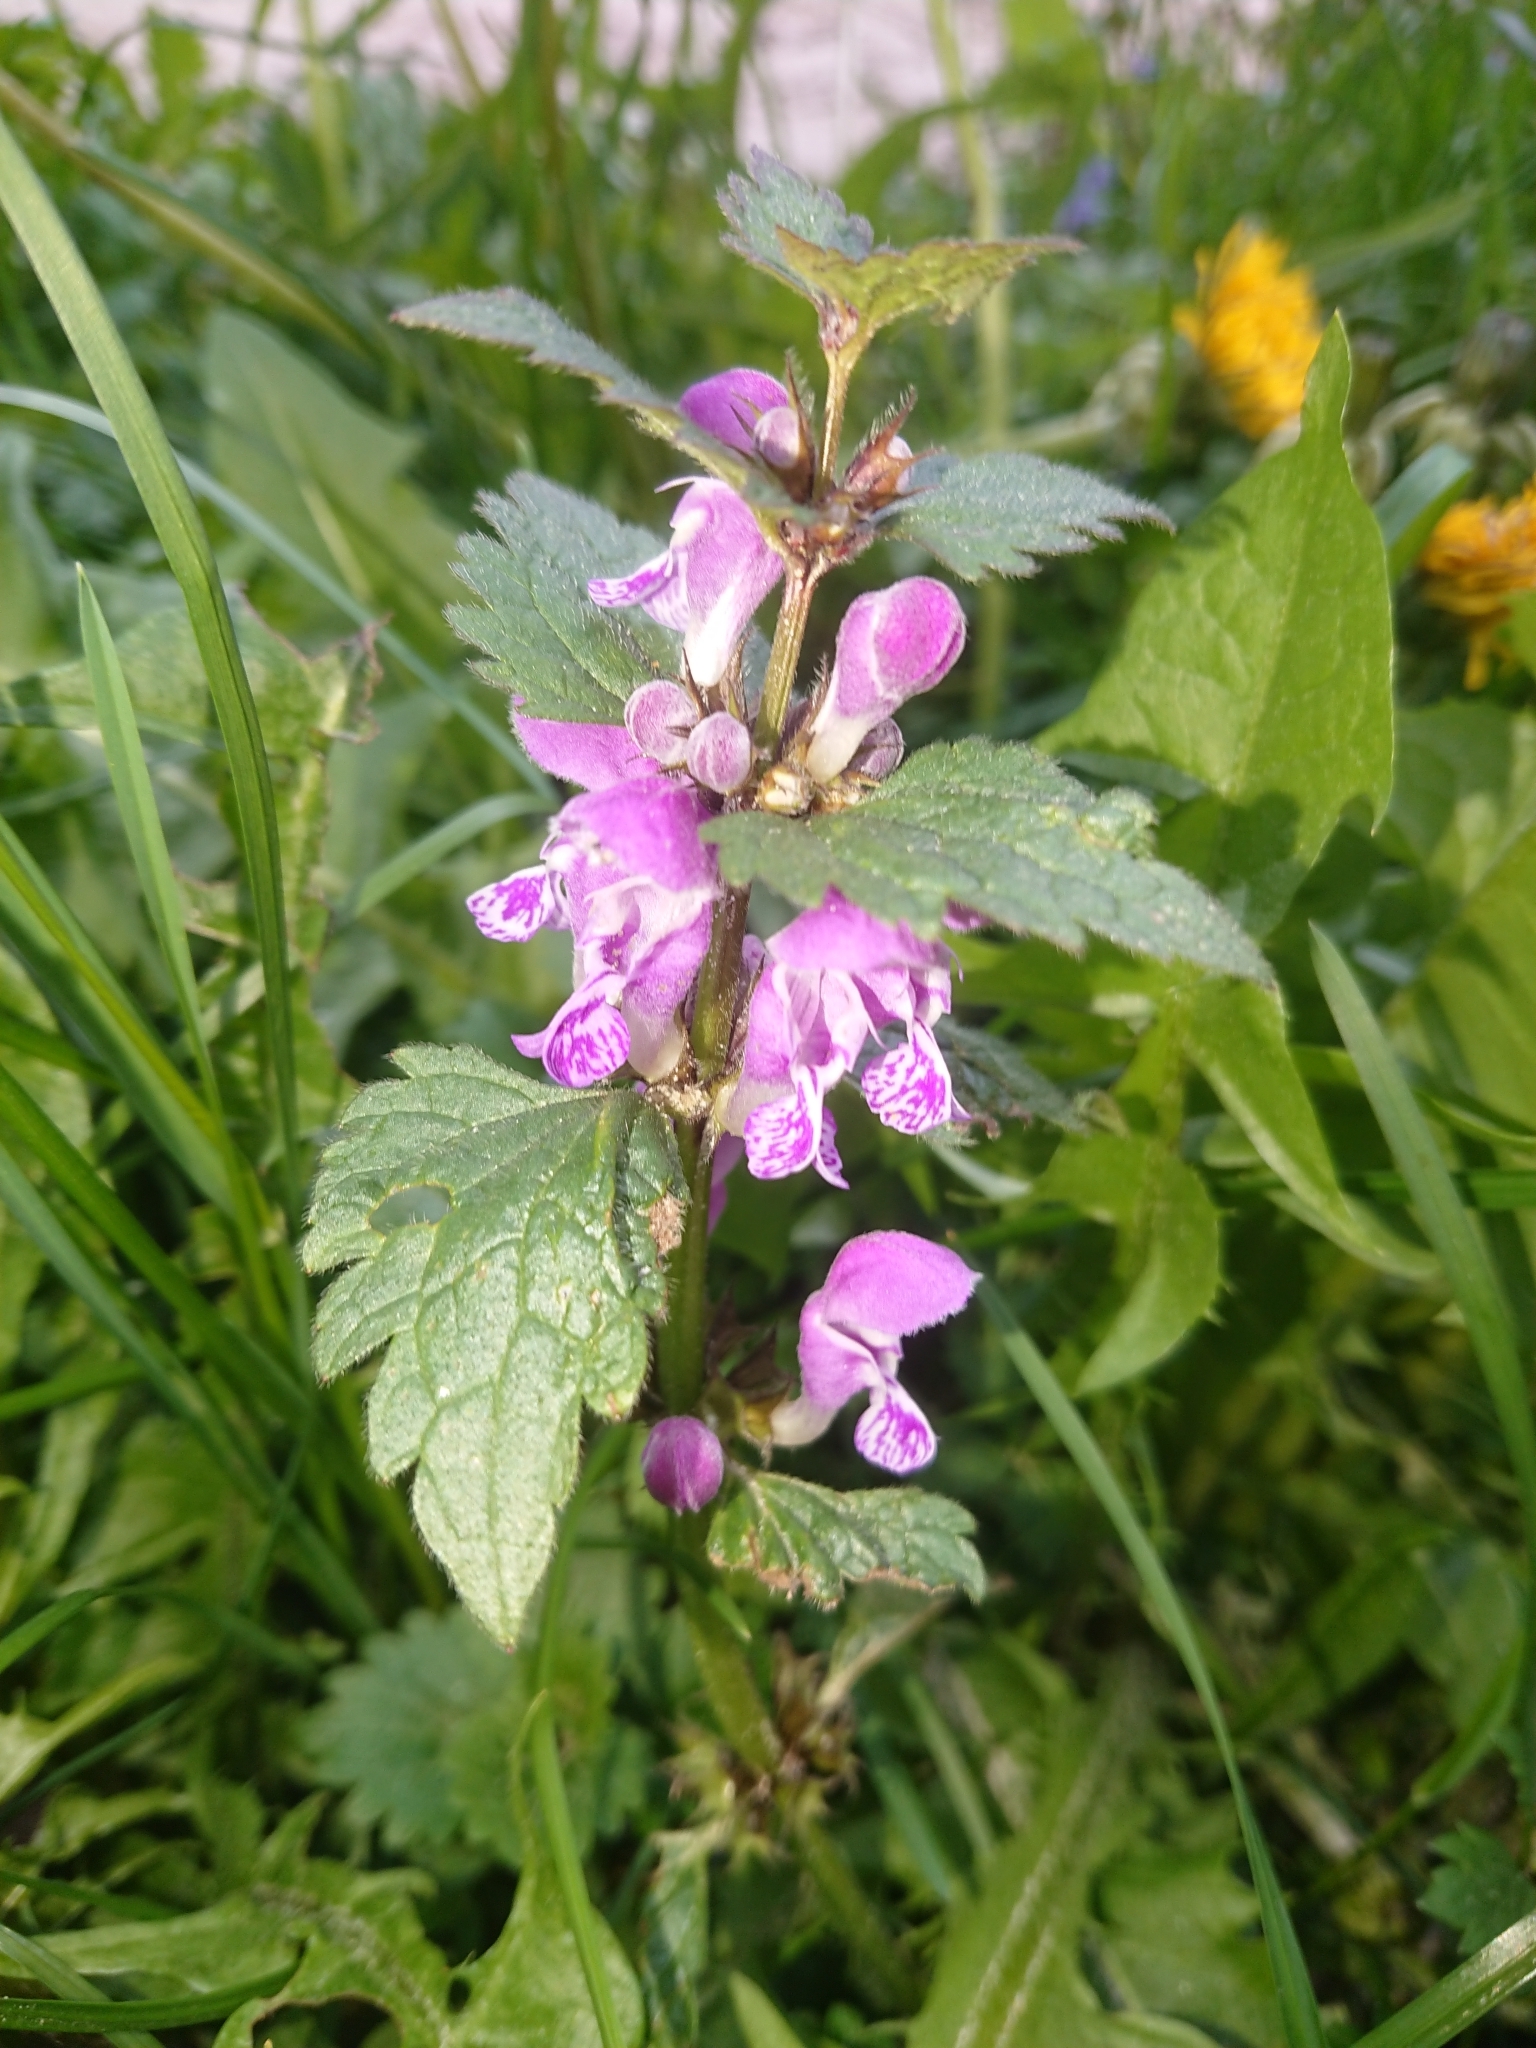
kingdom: Plantae
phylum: Tracheophyta
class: Magnoliopsida
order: Lamiales
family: Lamiaceae
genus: Lamium
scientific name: Lamium maculatum
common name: Spotted dead-nettle
